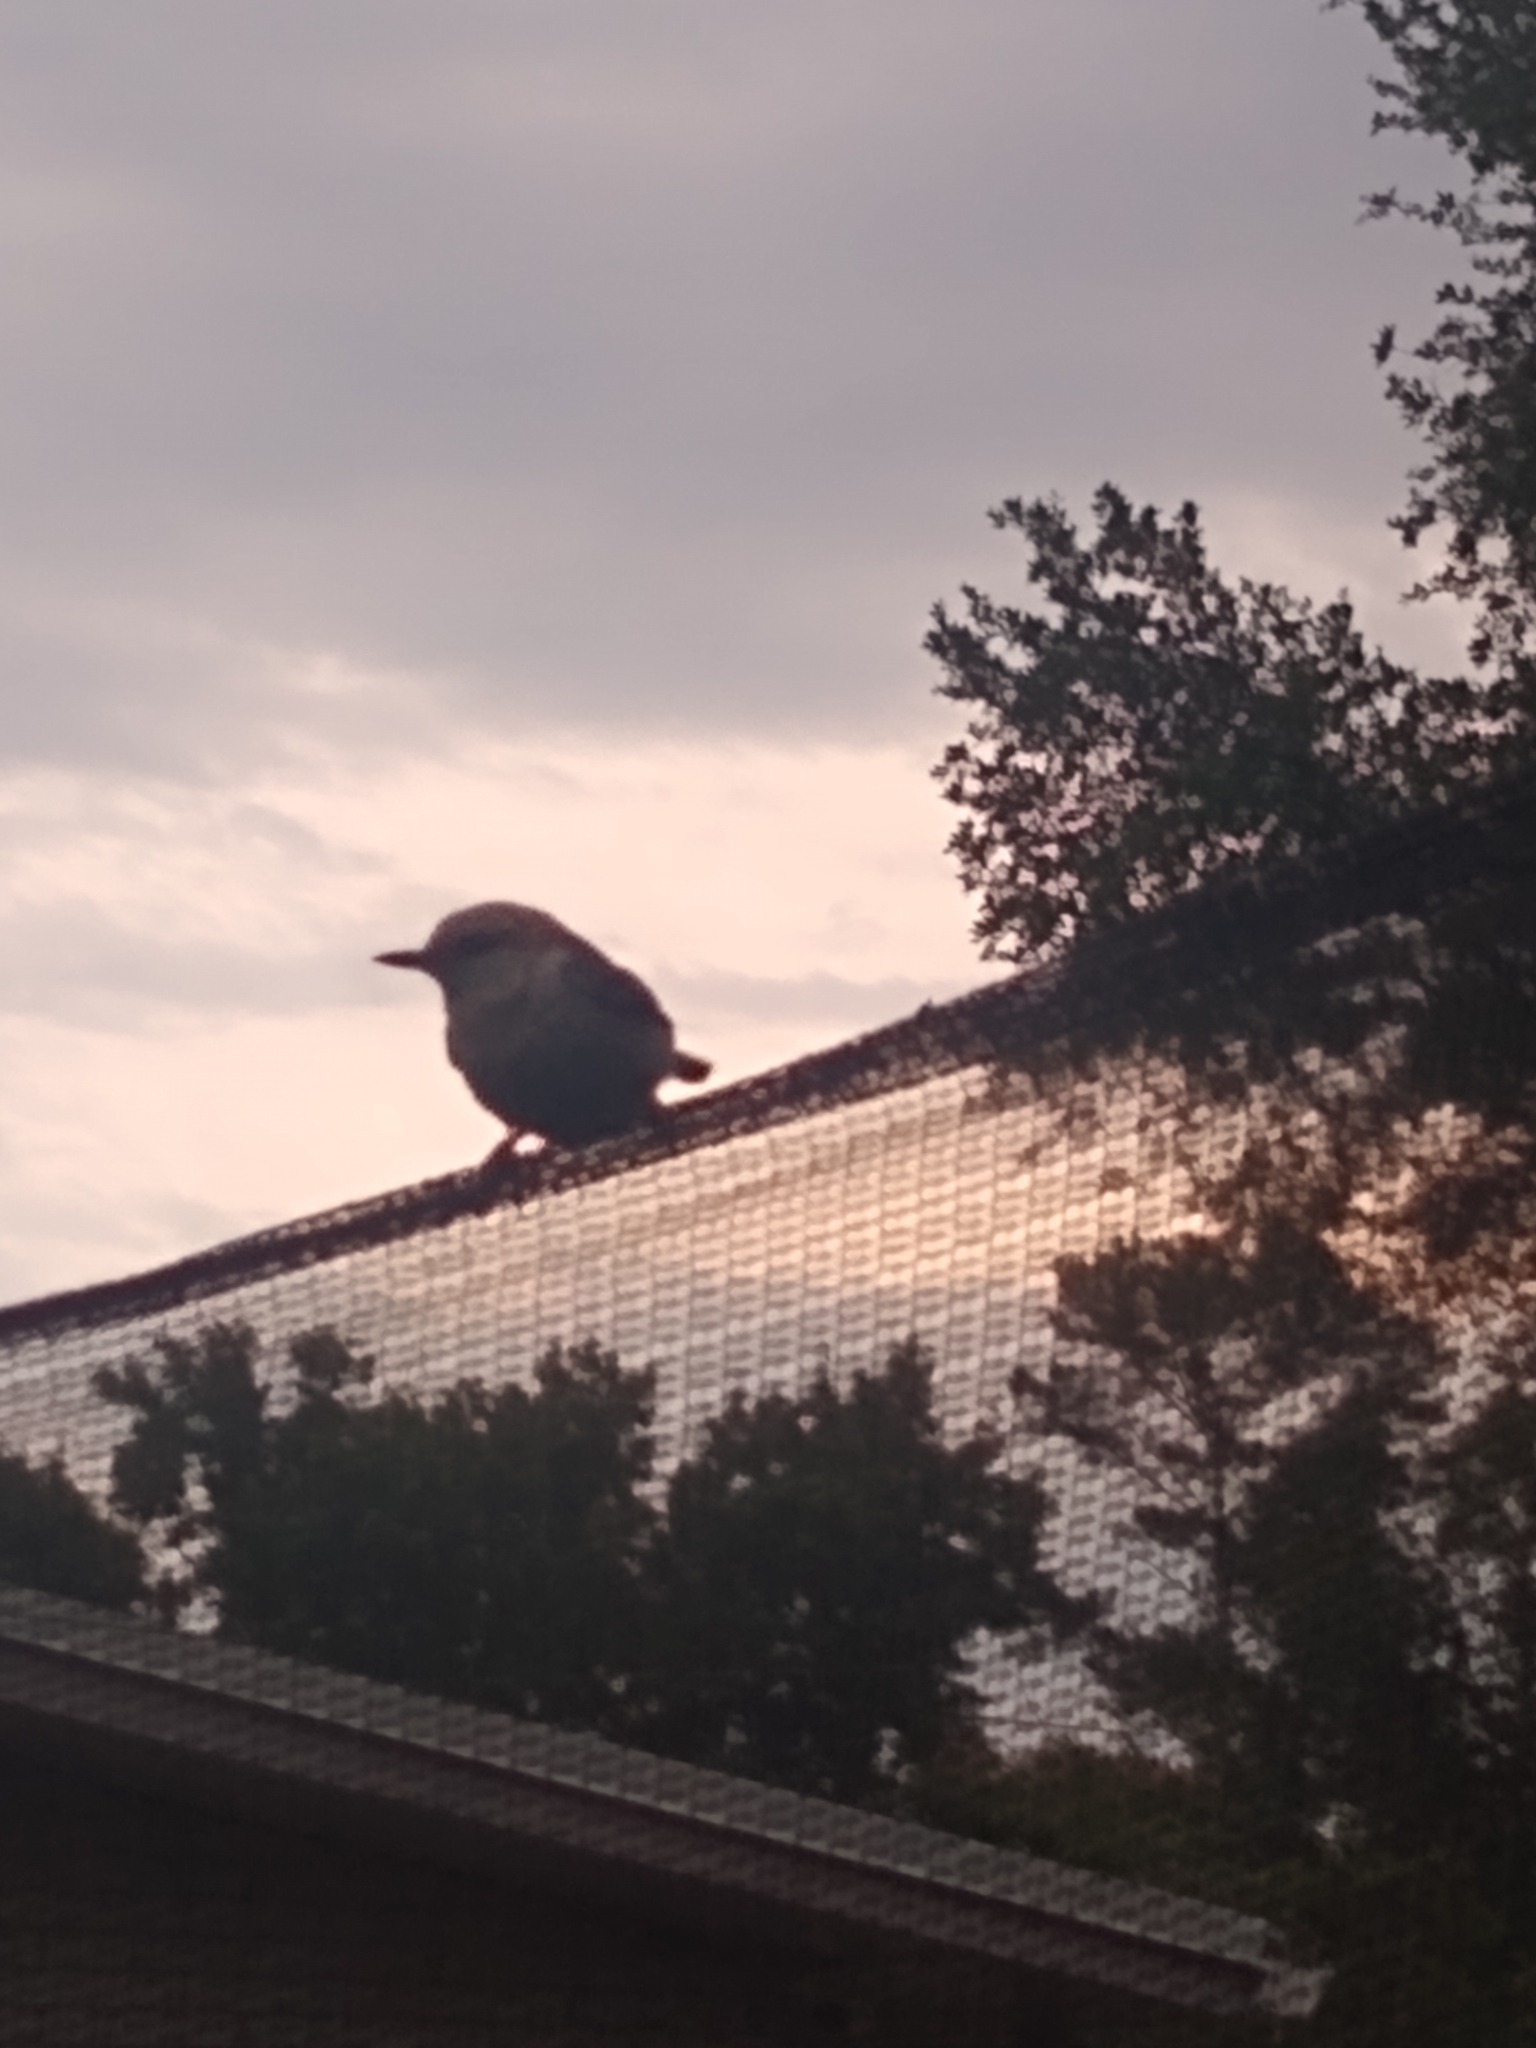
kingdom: Animalia
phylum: Chordata
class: Aves
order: Passeriformes
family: Sittidae
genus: Sitta
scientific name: Sitta pusilla
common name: Brown-headed nuthatch
